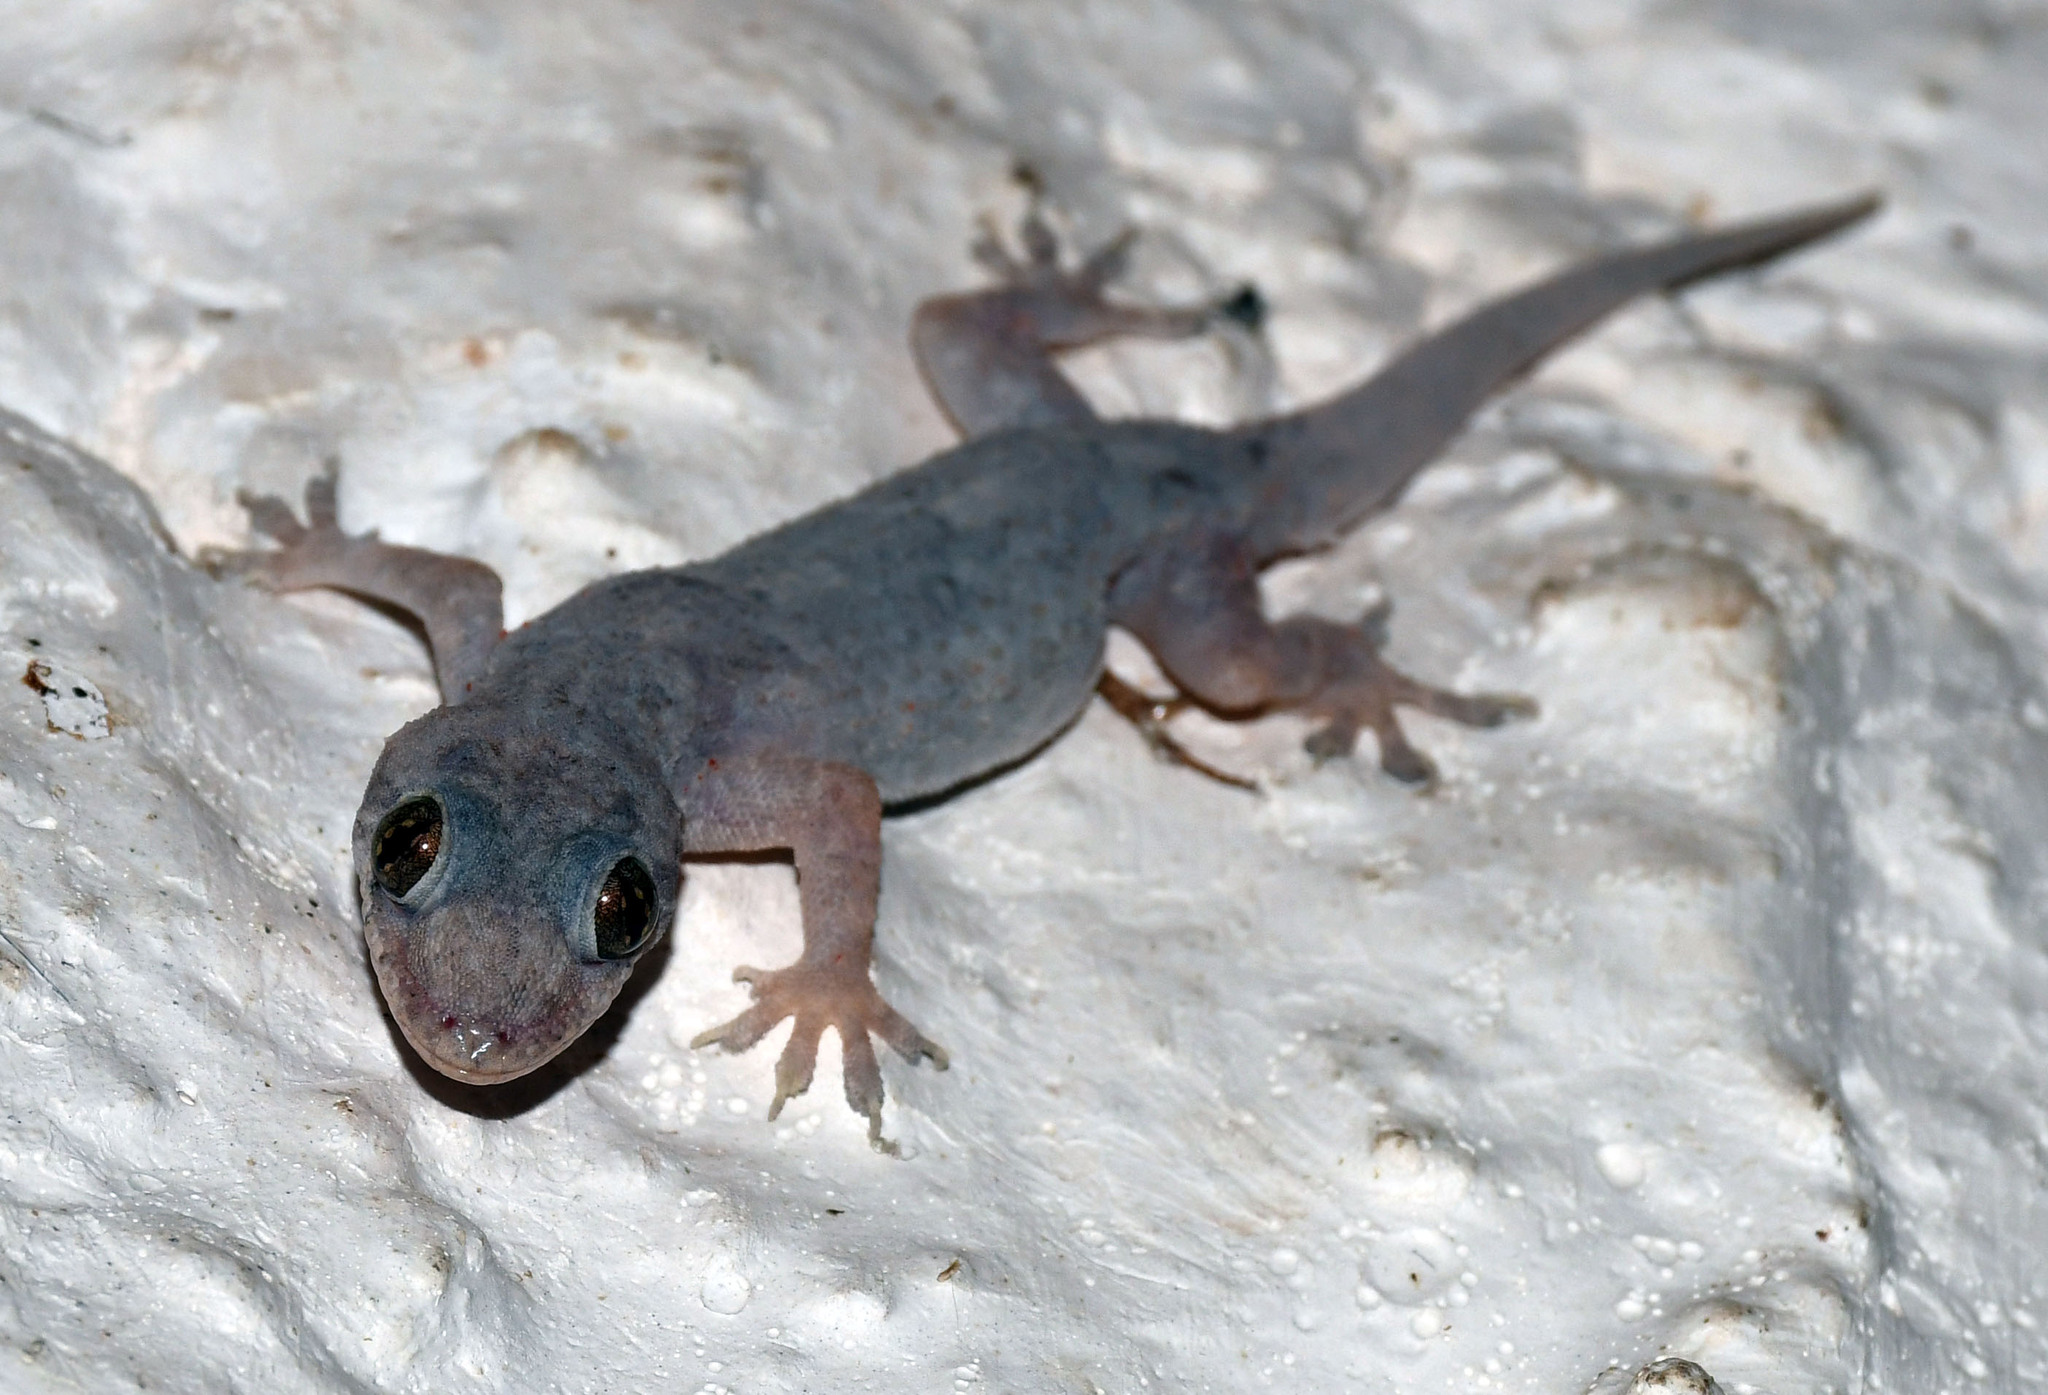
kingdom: Animalia
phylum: Chordata
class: Squamata
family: Gekkonidae
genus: Hemidactylus
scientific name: Hemidactylus mabouia
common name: House gecko
